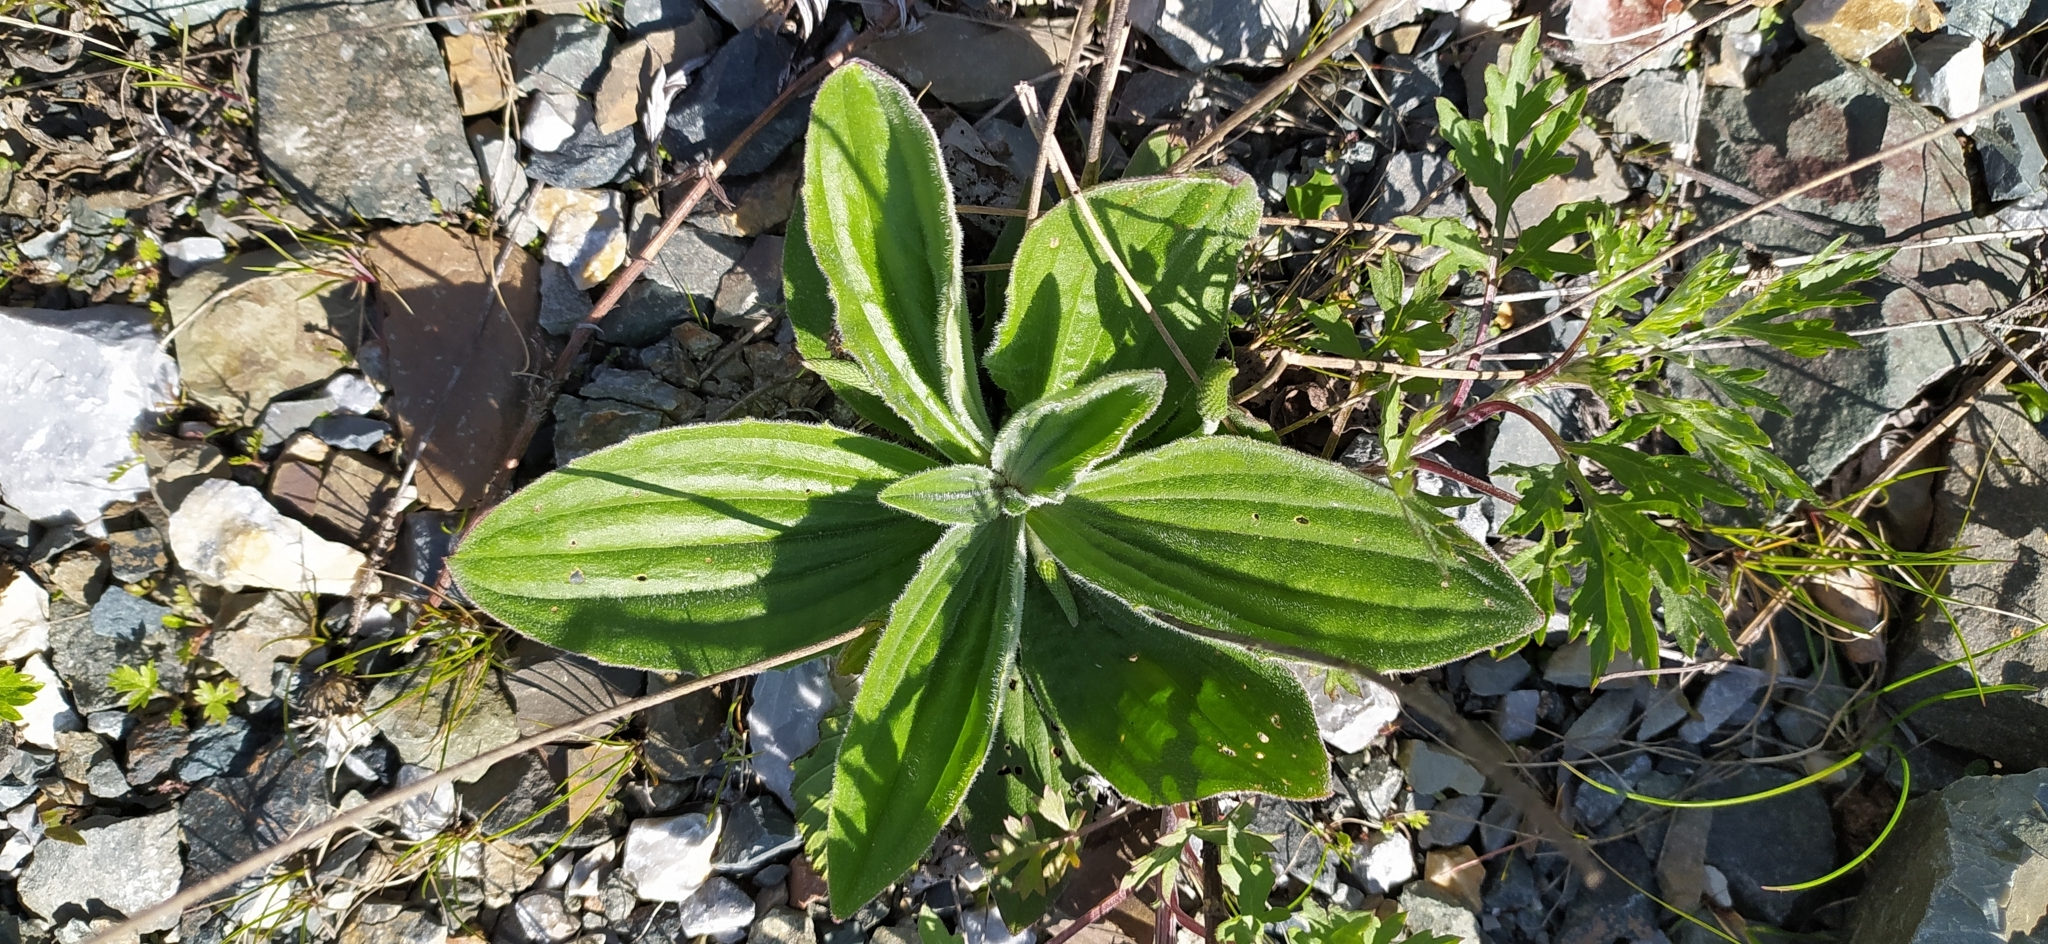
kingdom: Plantae
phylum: Tracheophyta
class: Magnoliopsida
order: Lamiales
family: Plantaginaceae
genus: Plantago
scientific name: Plantago media
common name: Hoary plantain
